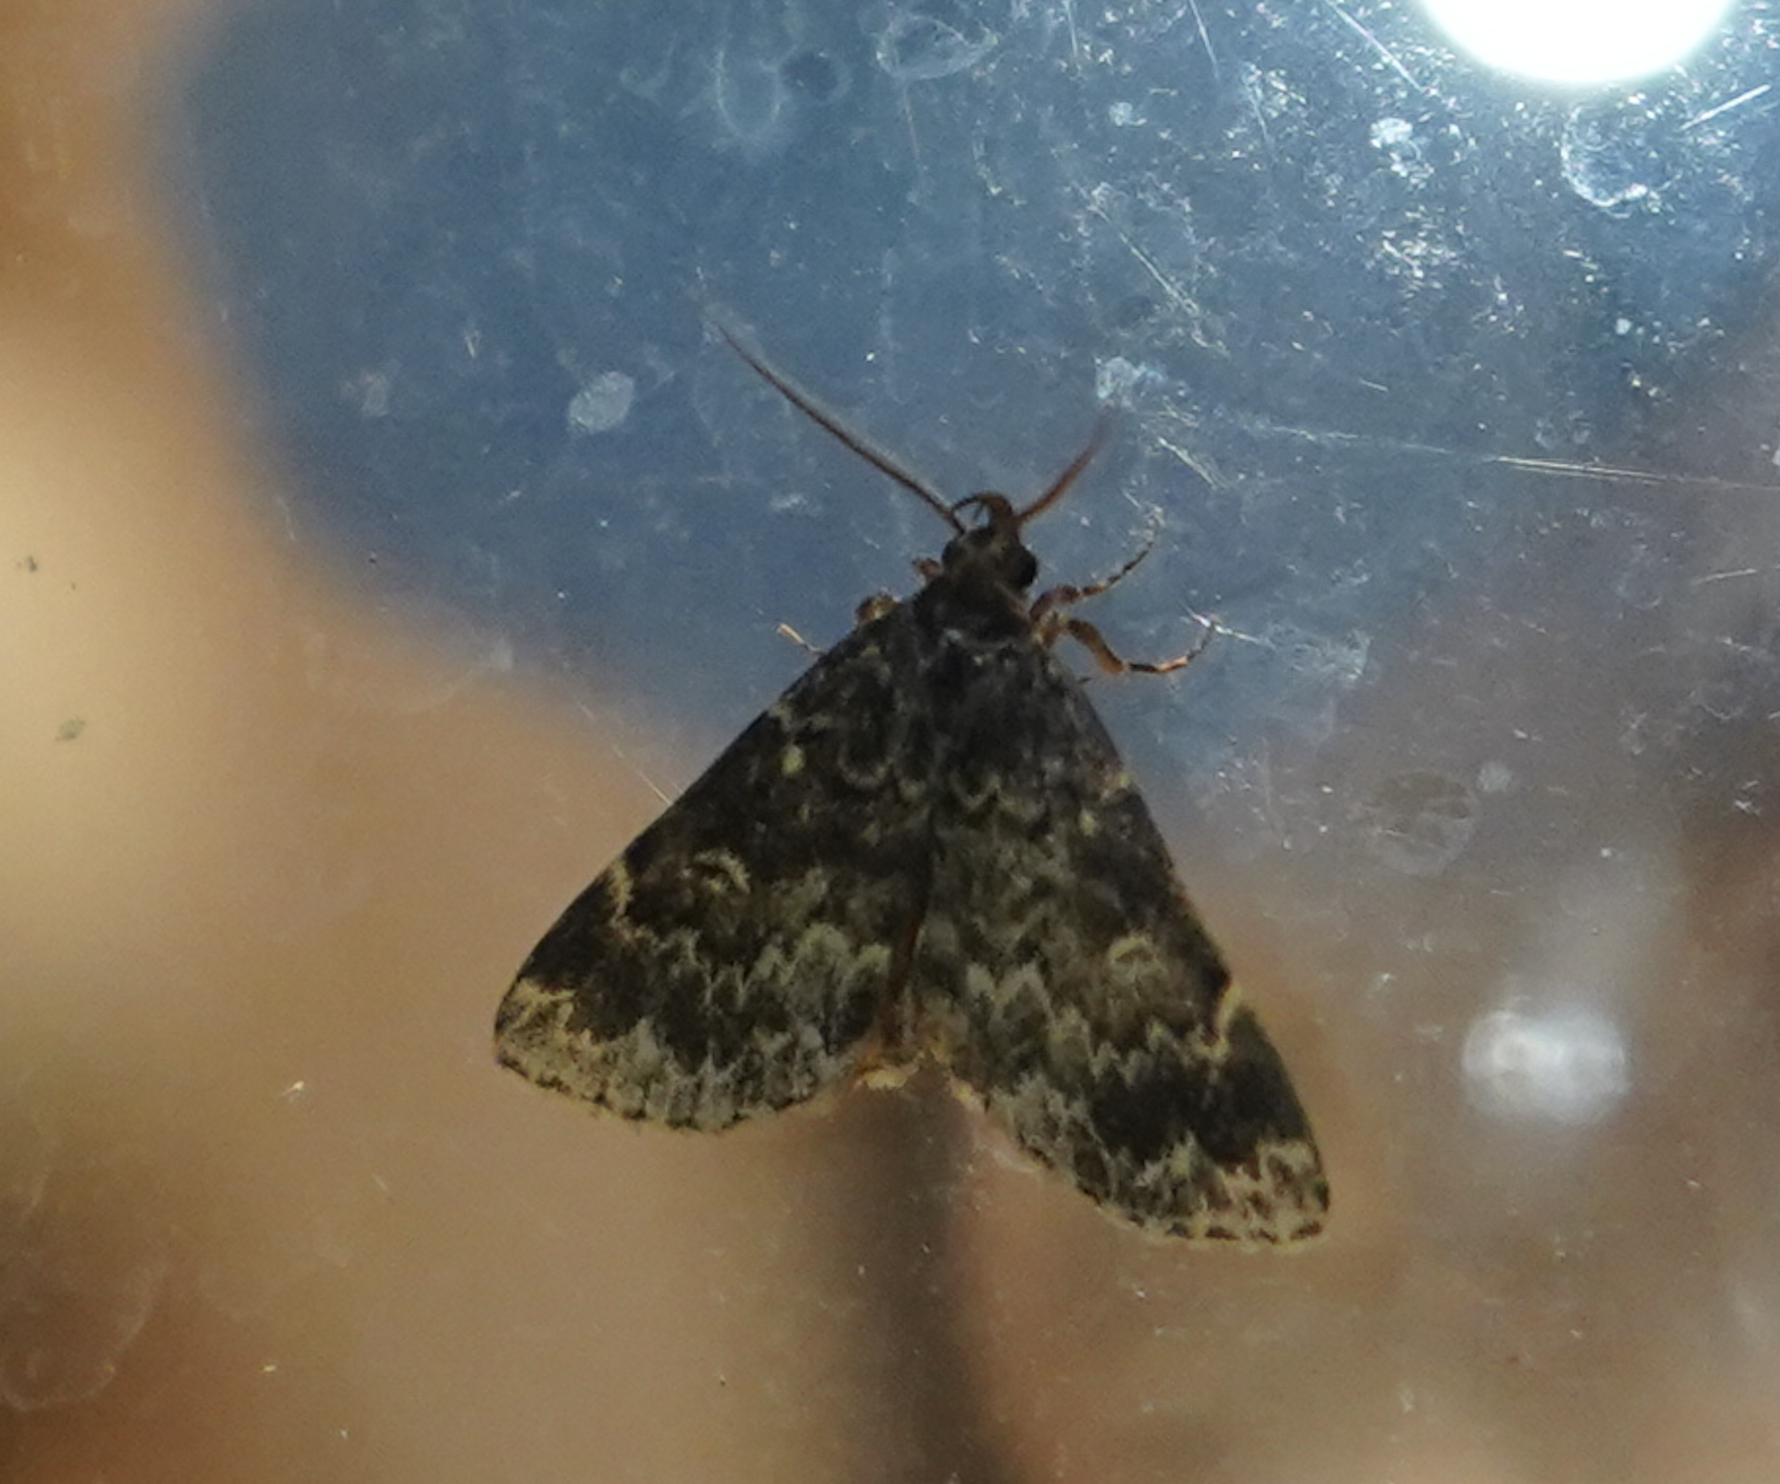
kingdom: Animalia
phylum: Arthropoda
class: Insecta
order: Lepidoptera
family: Erebidae
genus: Idia
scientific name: Idia scobialis
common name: Smoky idia moth
